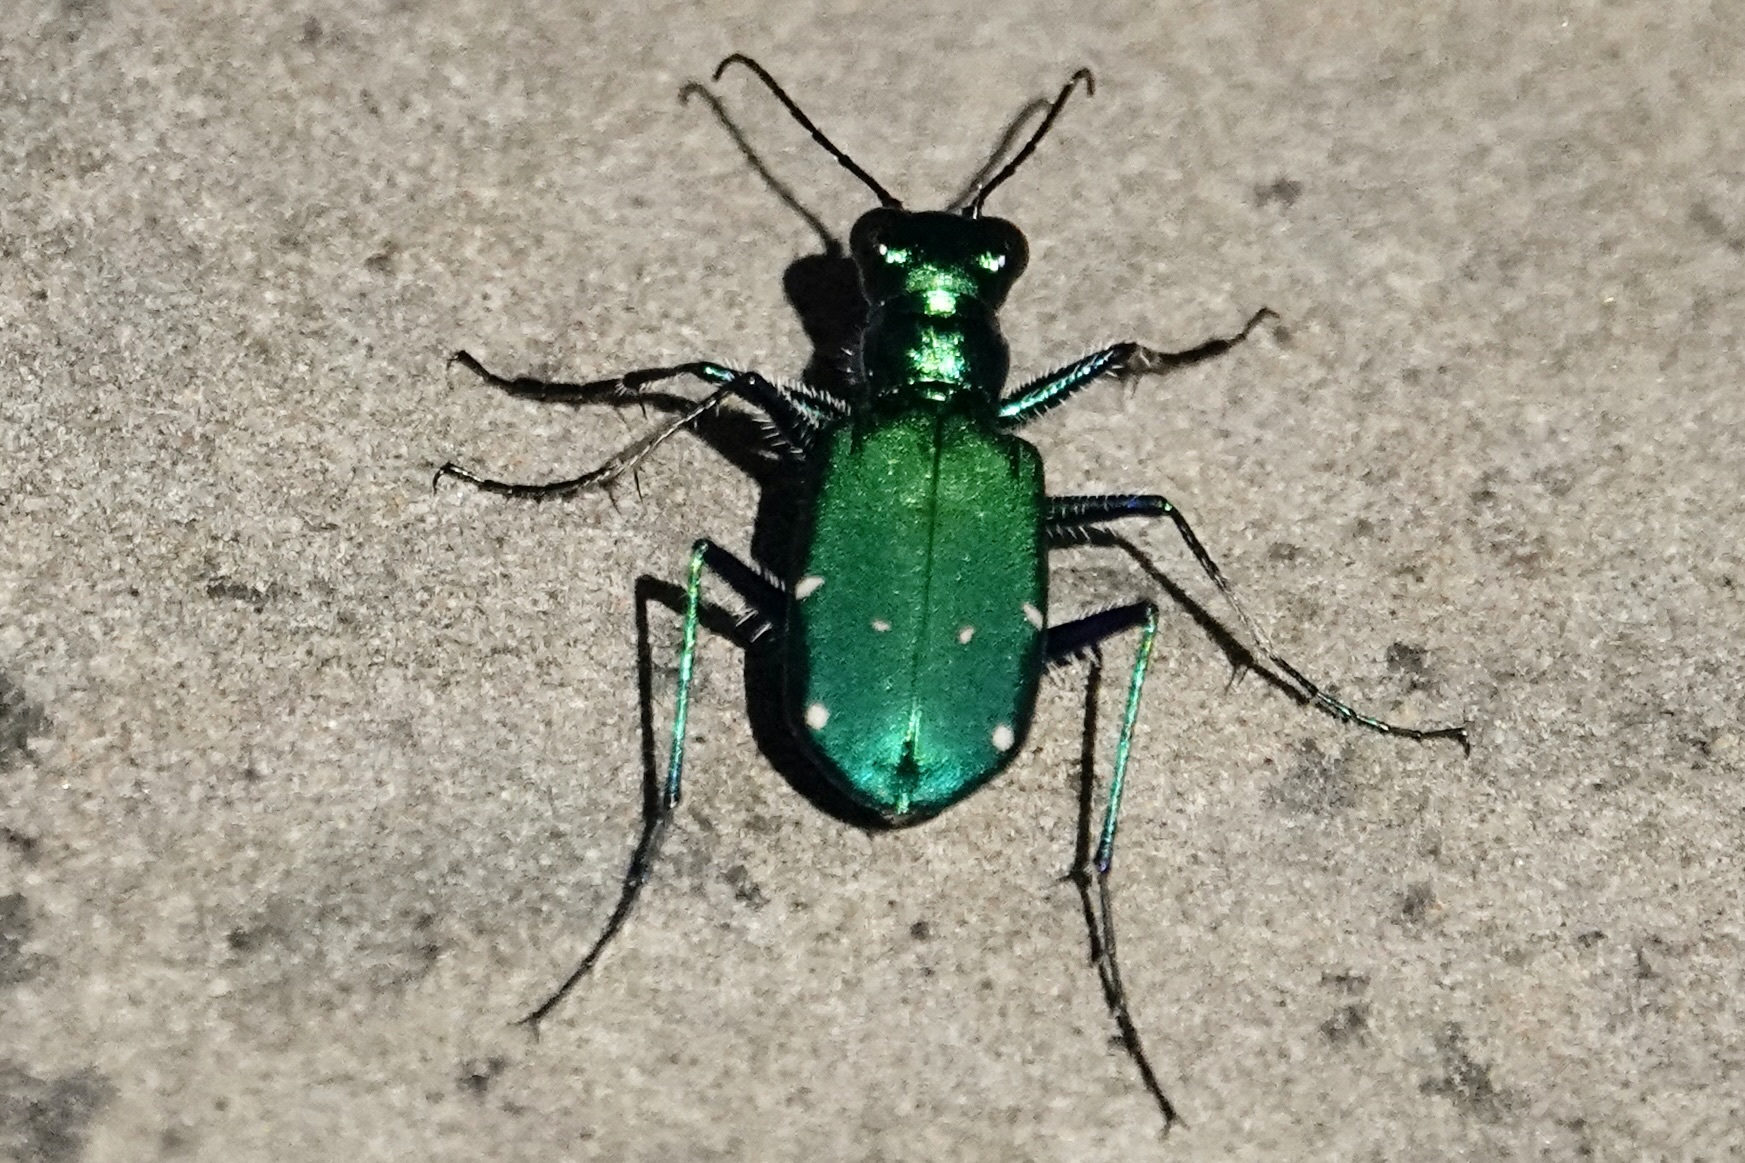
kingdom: Animalia
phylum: Arthropoda
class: Insecta
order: Coleoptera
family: Carabidae
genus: Cicindela
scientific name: Cicindela sexguttata
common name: Six-spotted tiger beetle
